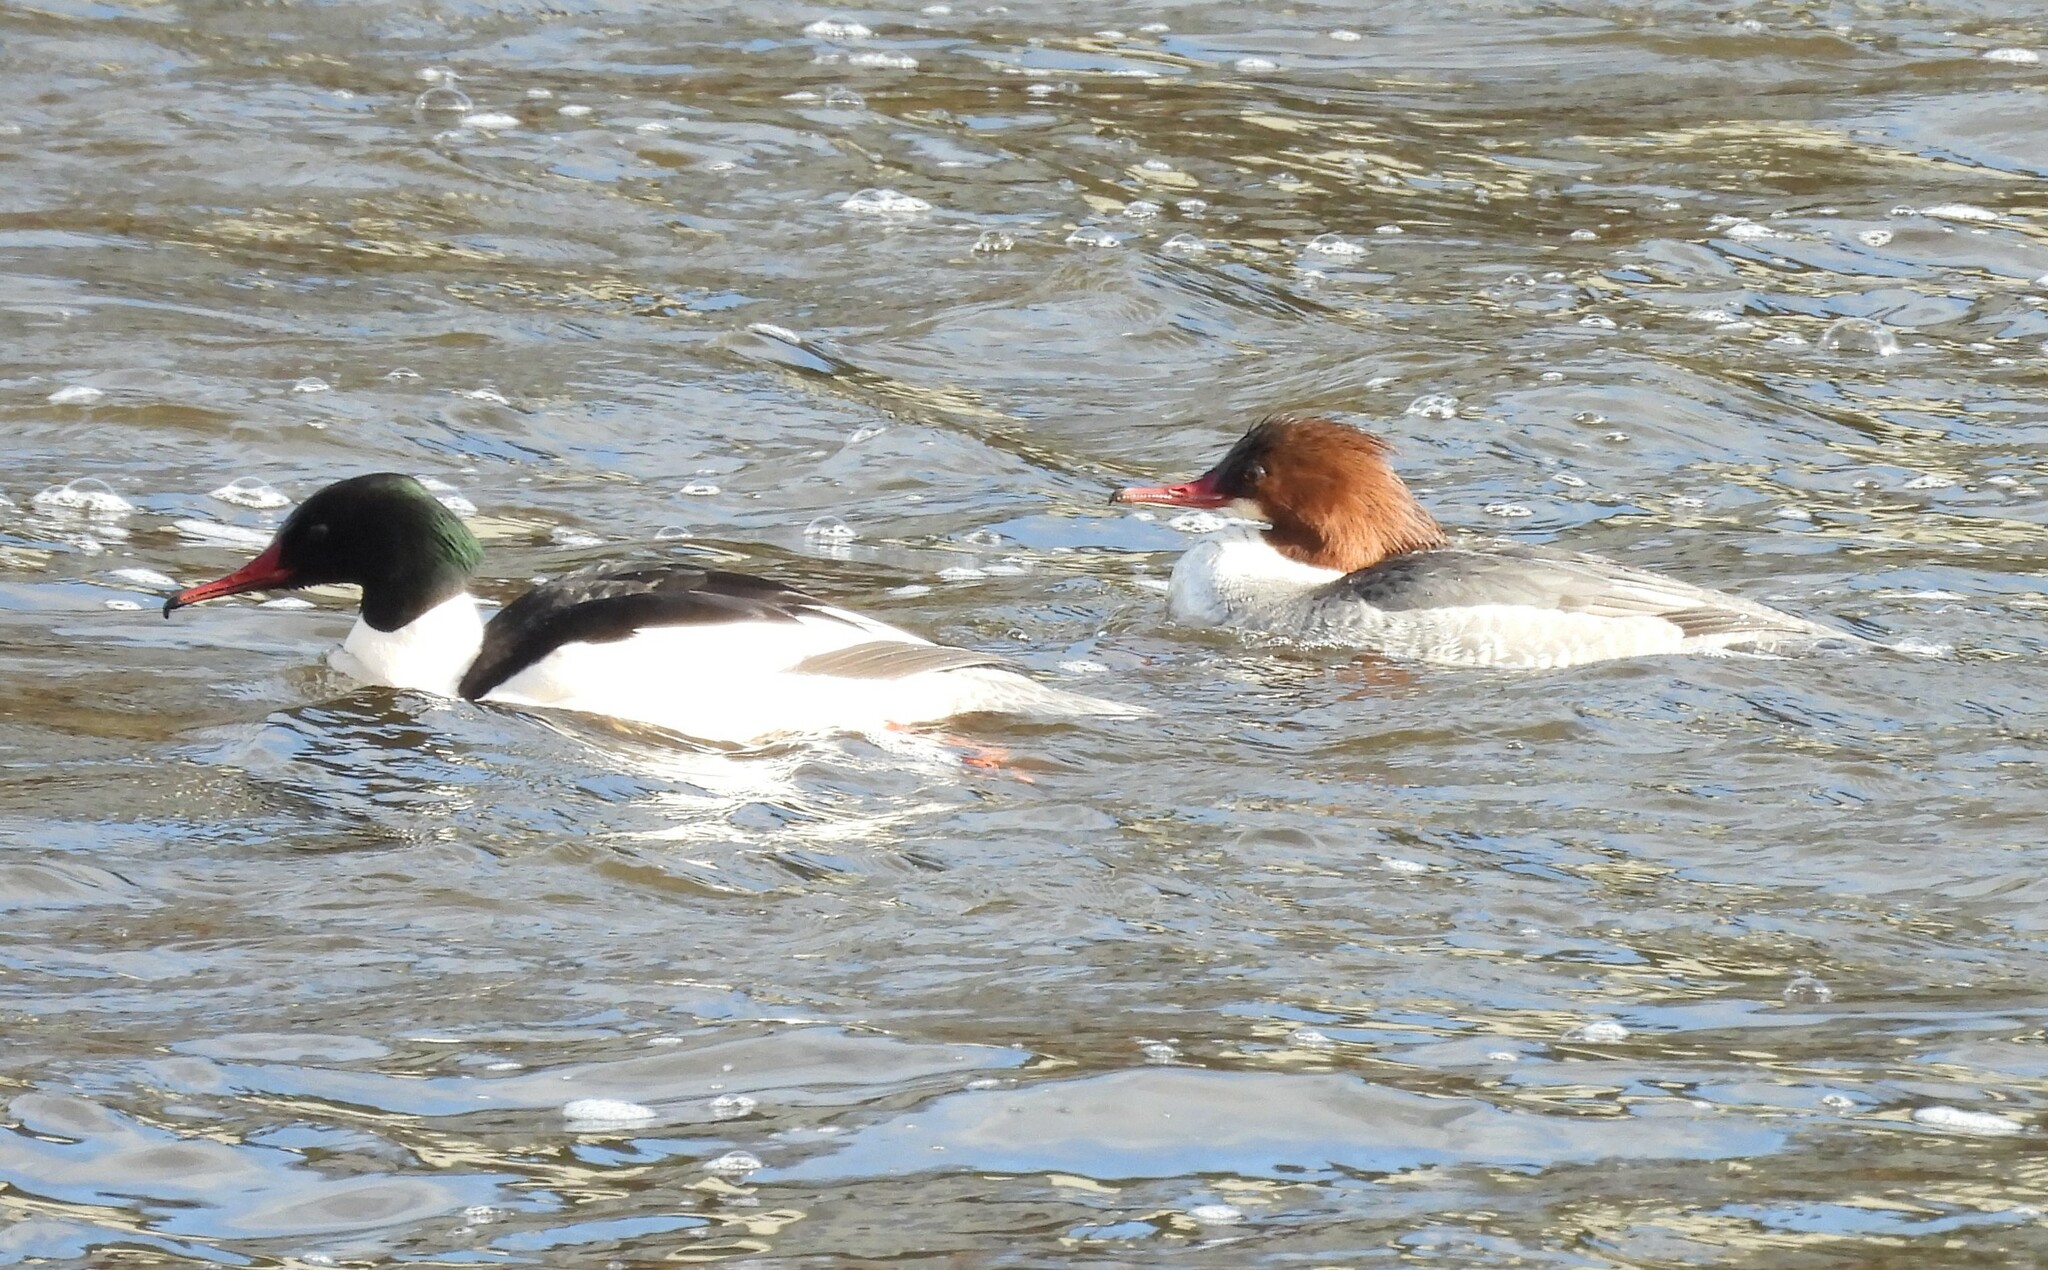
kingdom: Animalia
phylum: Chordata
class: Aves
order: Anseriformes
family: Anatidae
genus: Mergus
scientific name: Mergus merganser
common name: Common merganser
